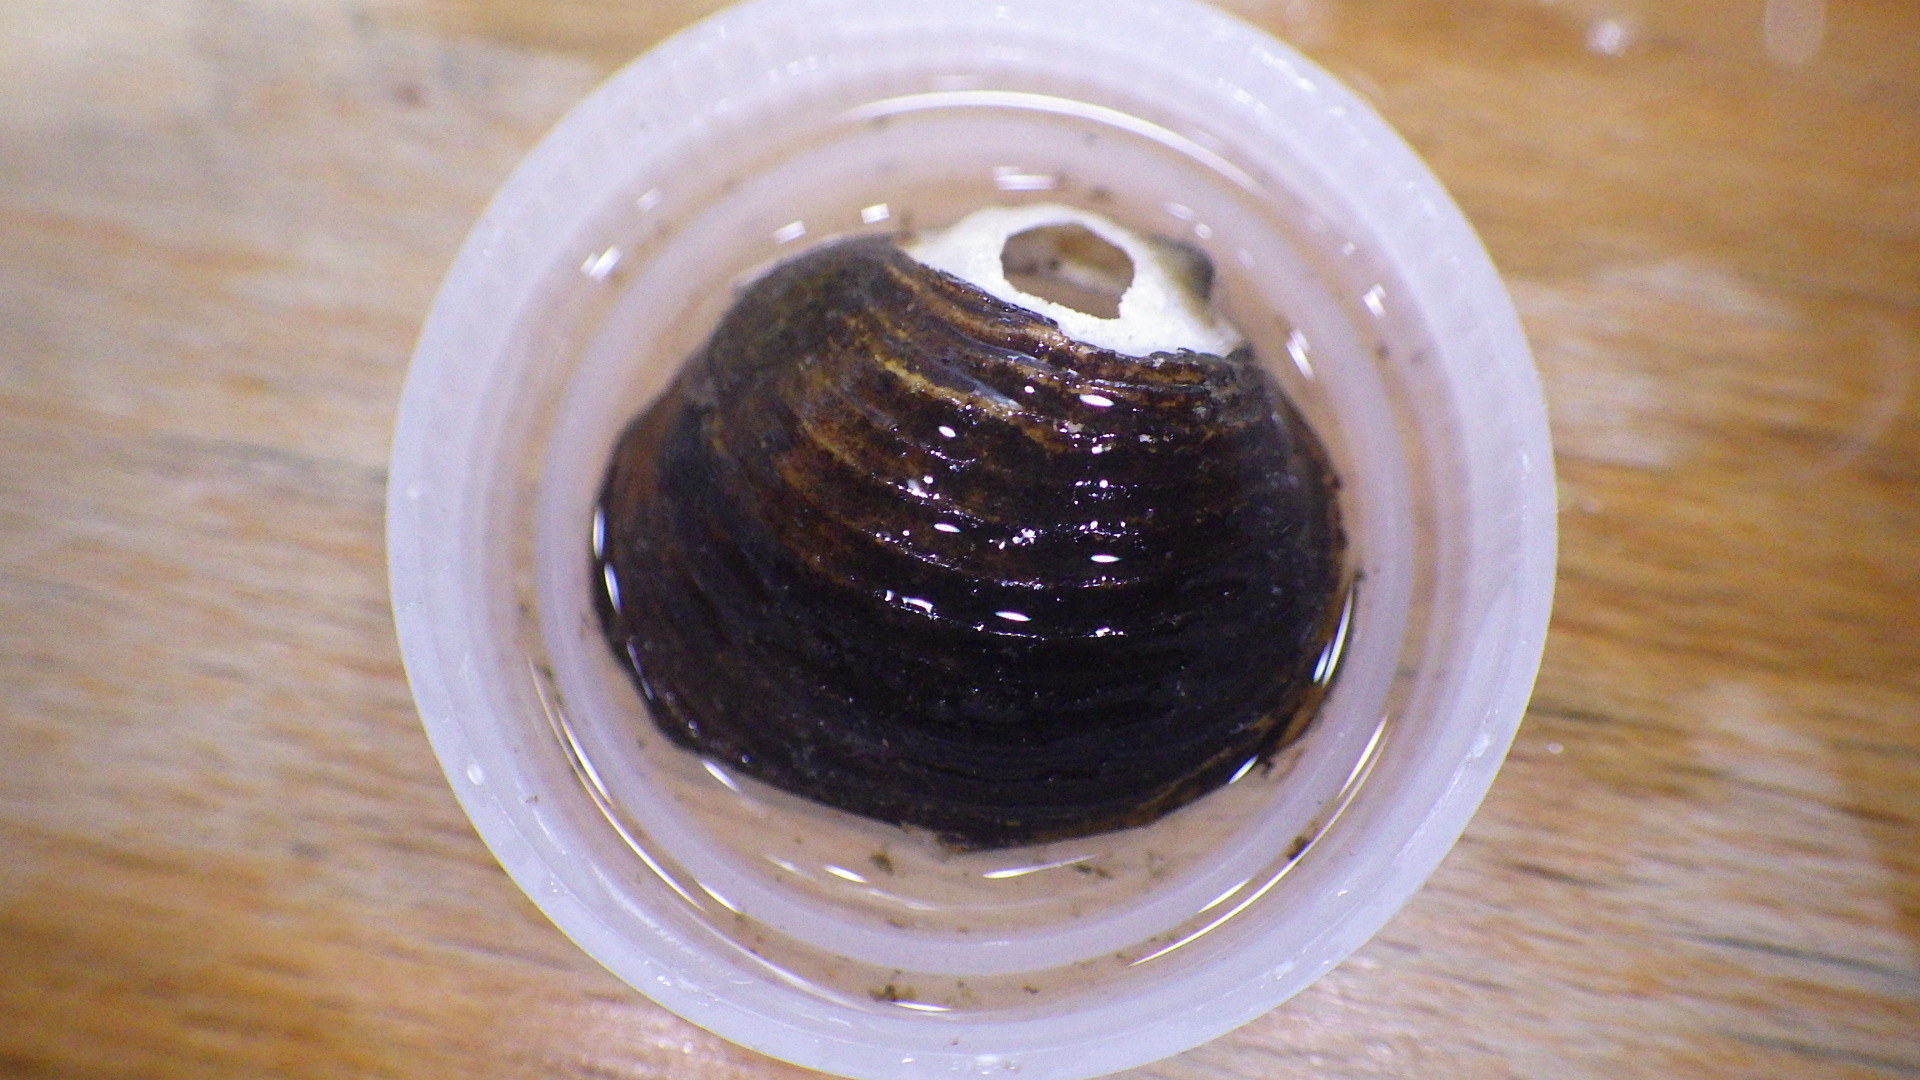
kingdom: Animalia
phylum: Mollusca
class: Bivalvia
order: Venerida
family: Cyrenidae
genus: Corbicula
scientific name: Corbicula fluminea
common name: Asian clam
